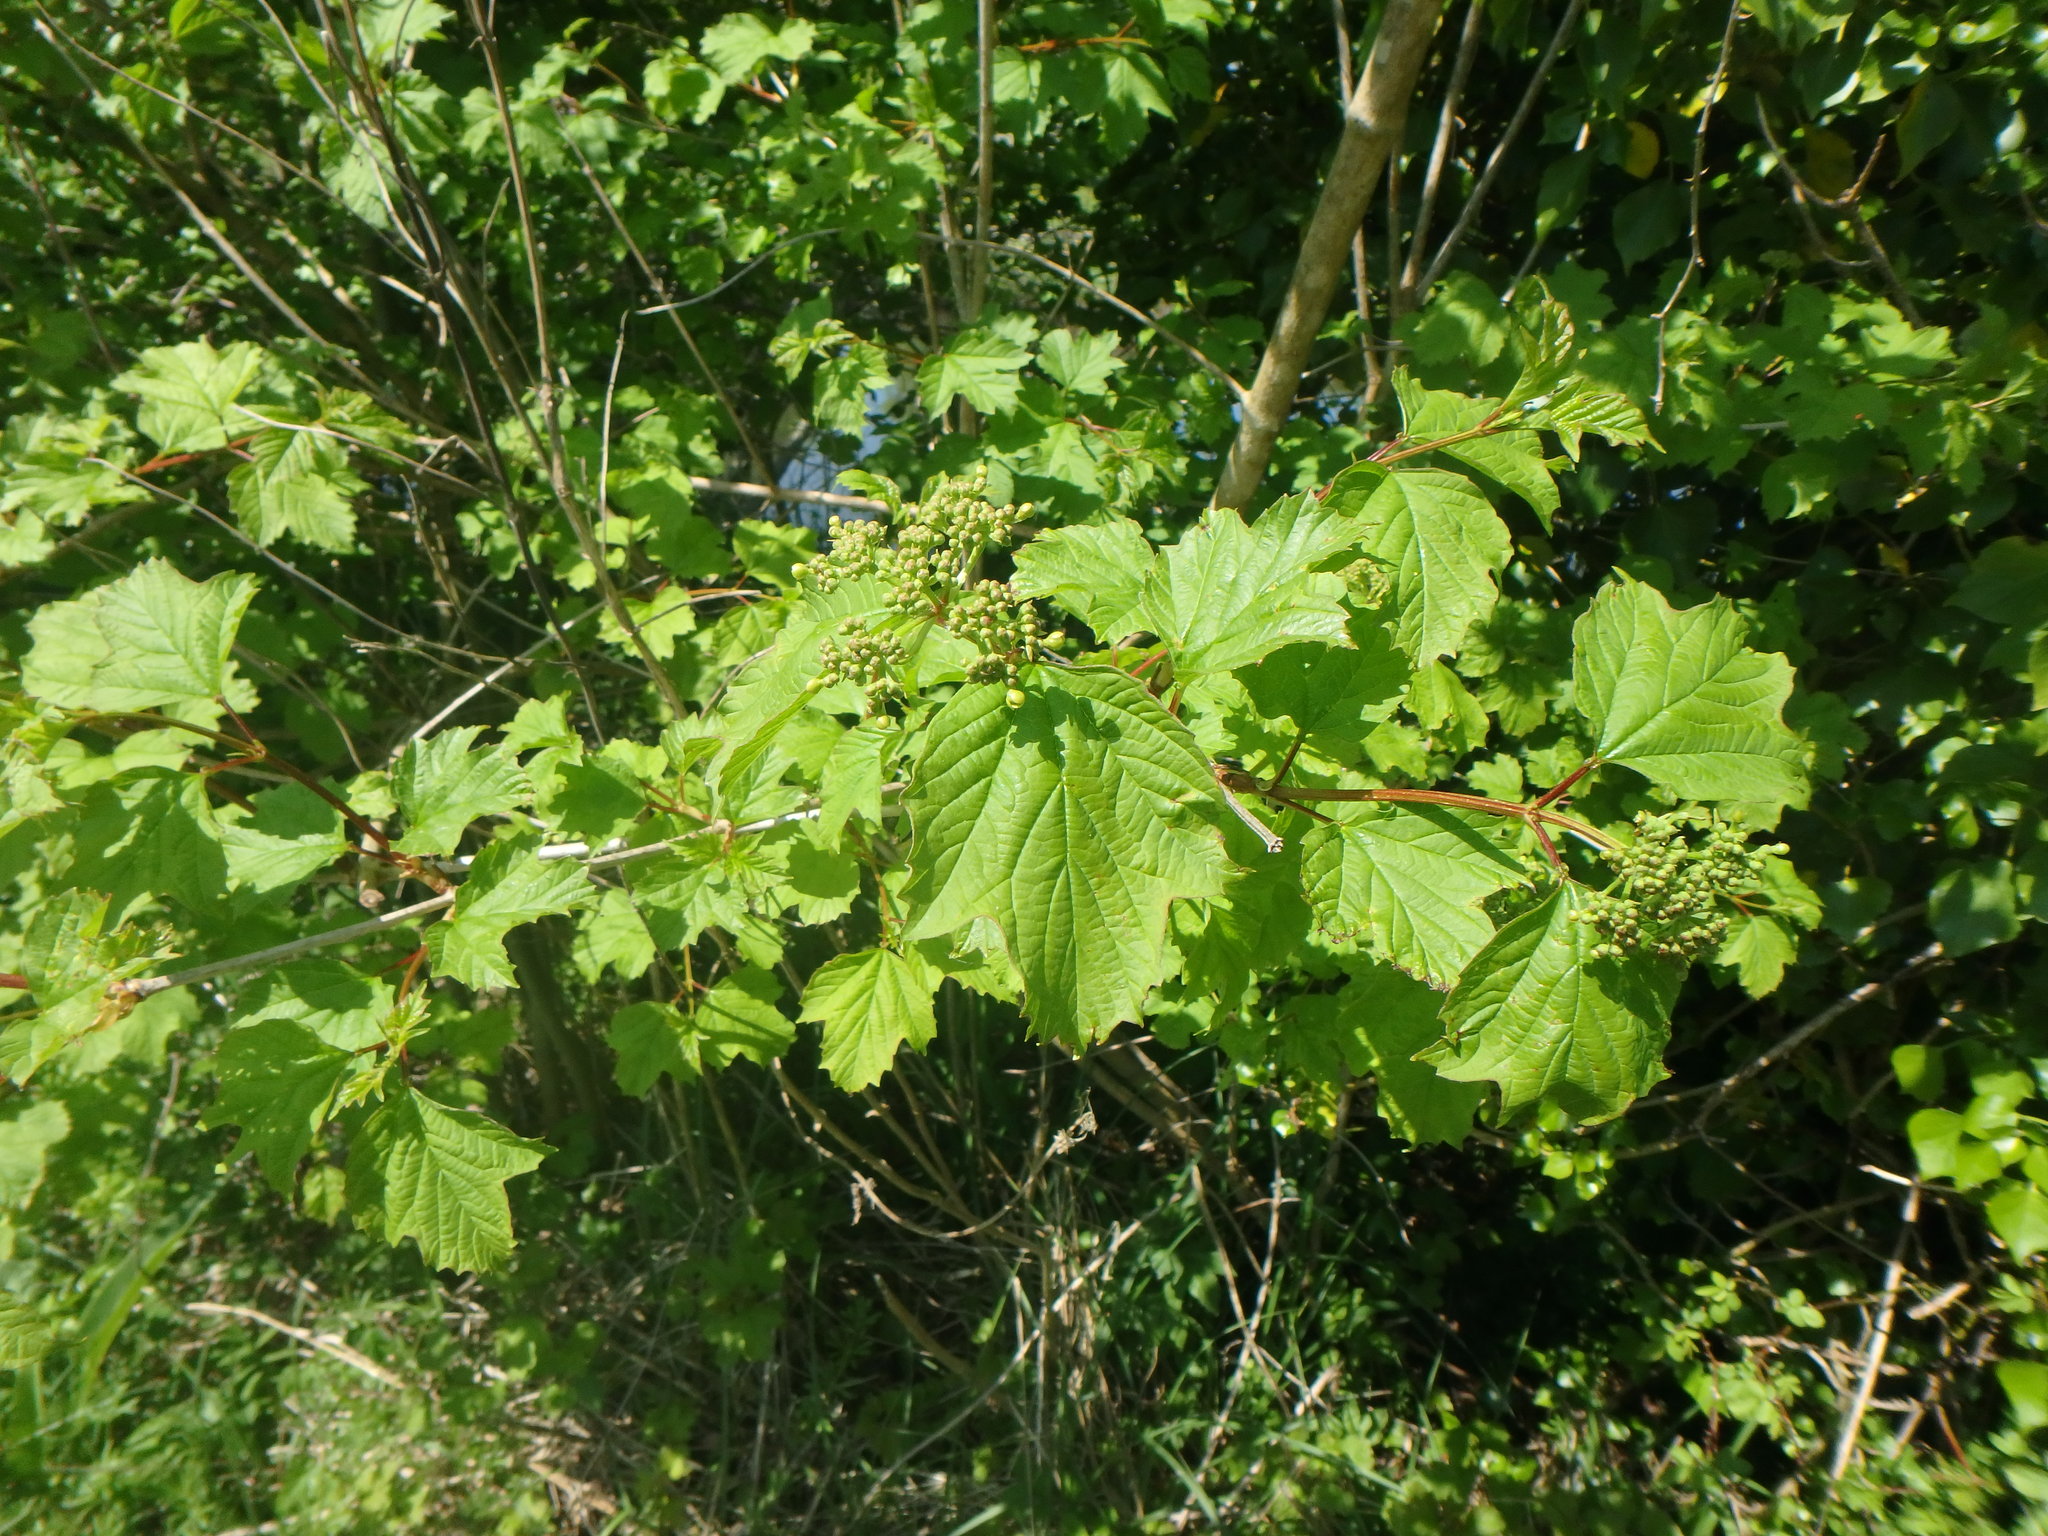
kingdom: Plantae
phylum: Tracheophyta
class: Magnoliopsida
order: Dipsacales
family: Viburnaceae
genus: Viburnum
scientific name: Viburnum opulus
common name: Guelder-rose
